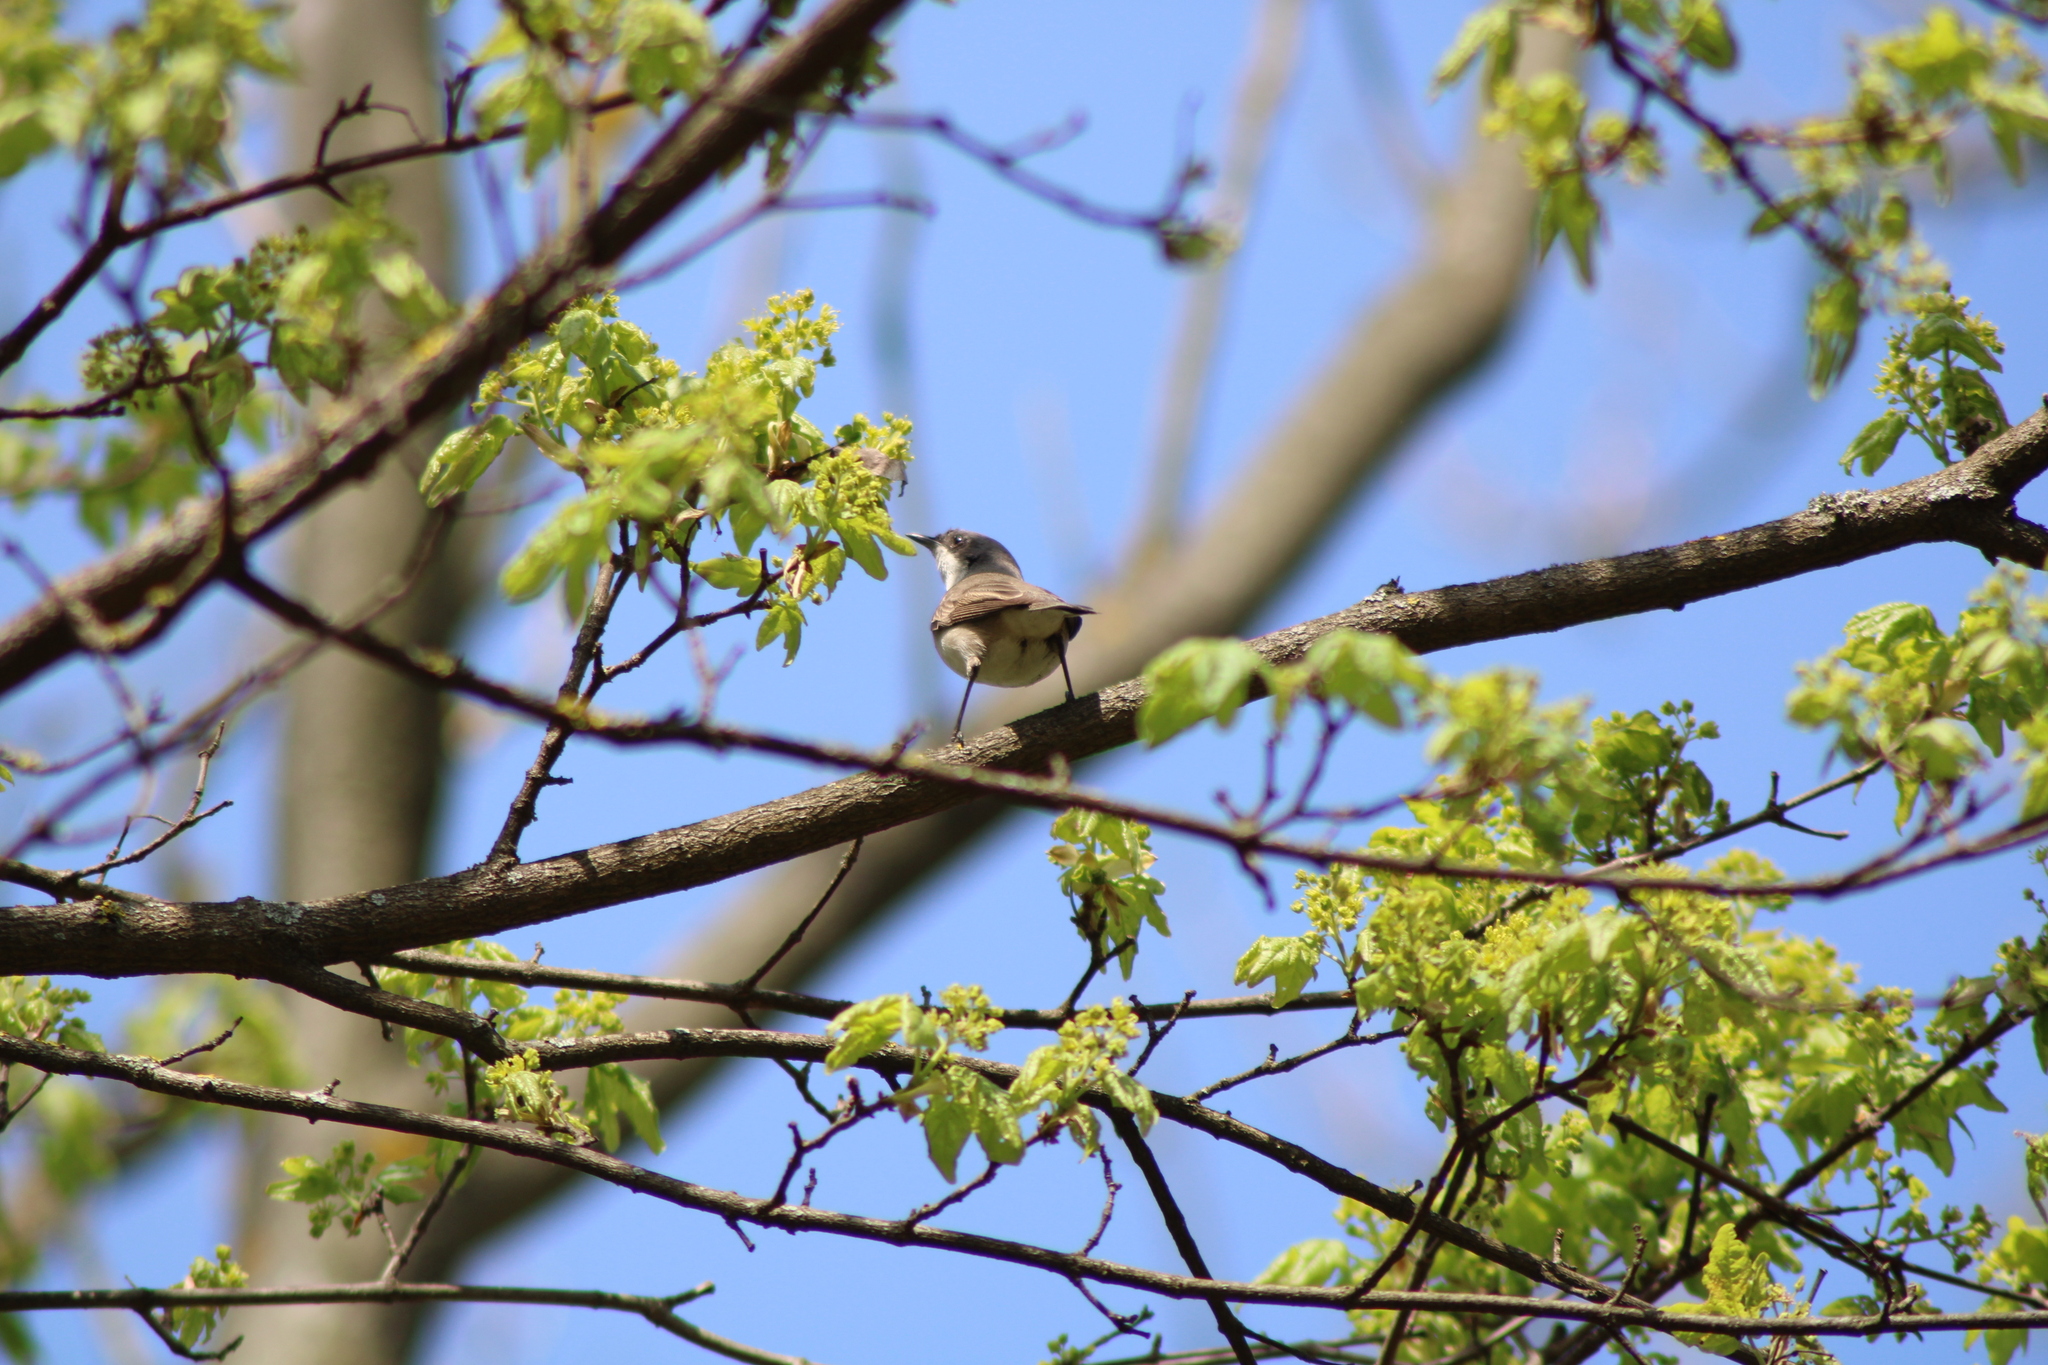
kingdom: Animalia
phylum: Chordata
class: Aves
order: Passeriformes
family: Sylviidae
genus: Sylvia
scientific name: Sylvia curruca
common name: Lesser whitethroat
